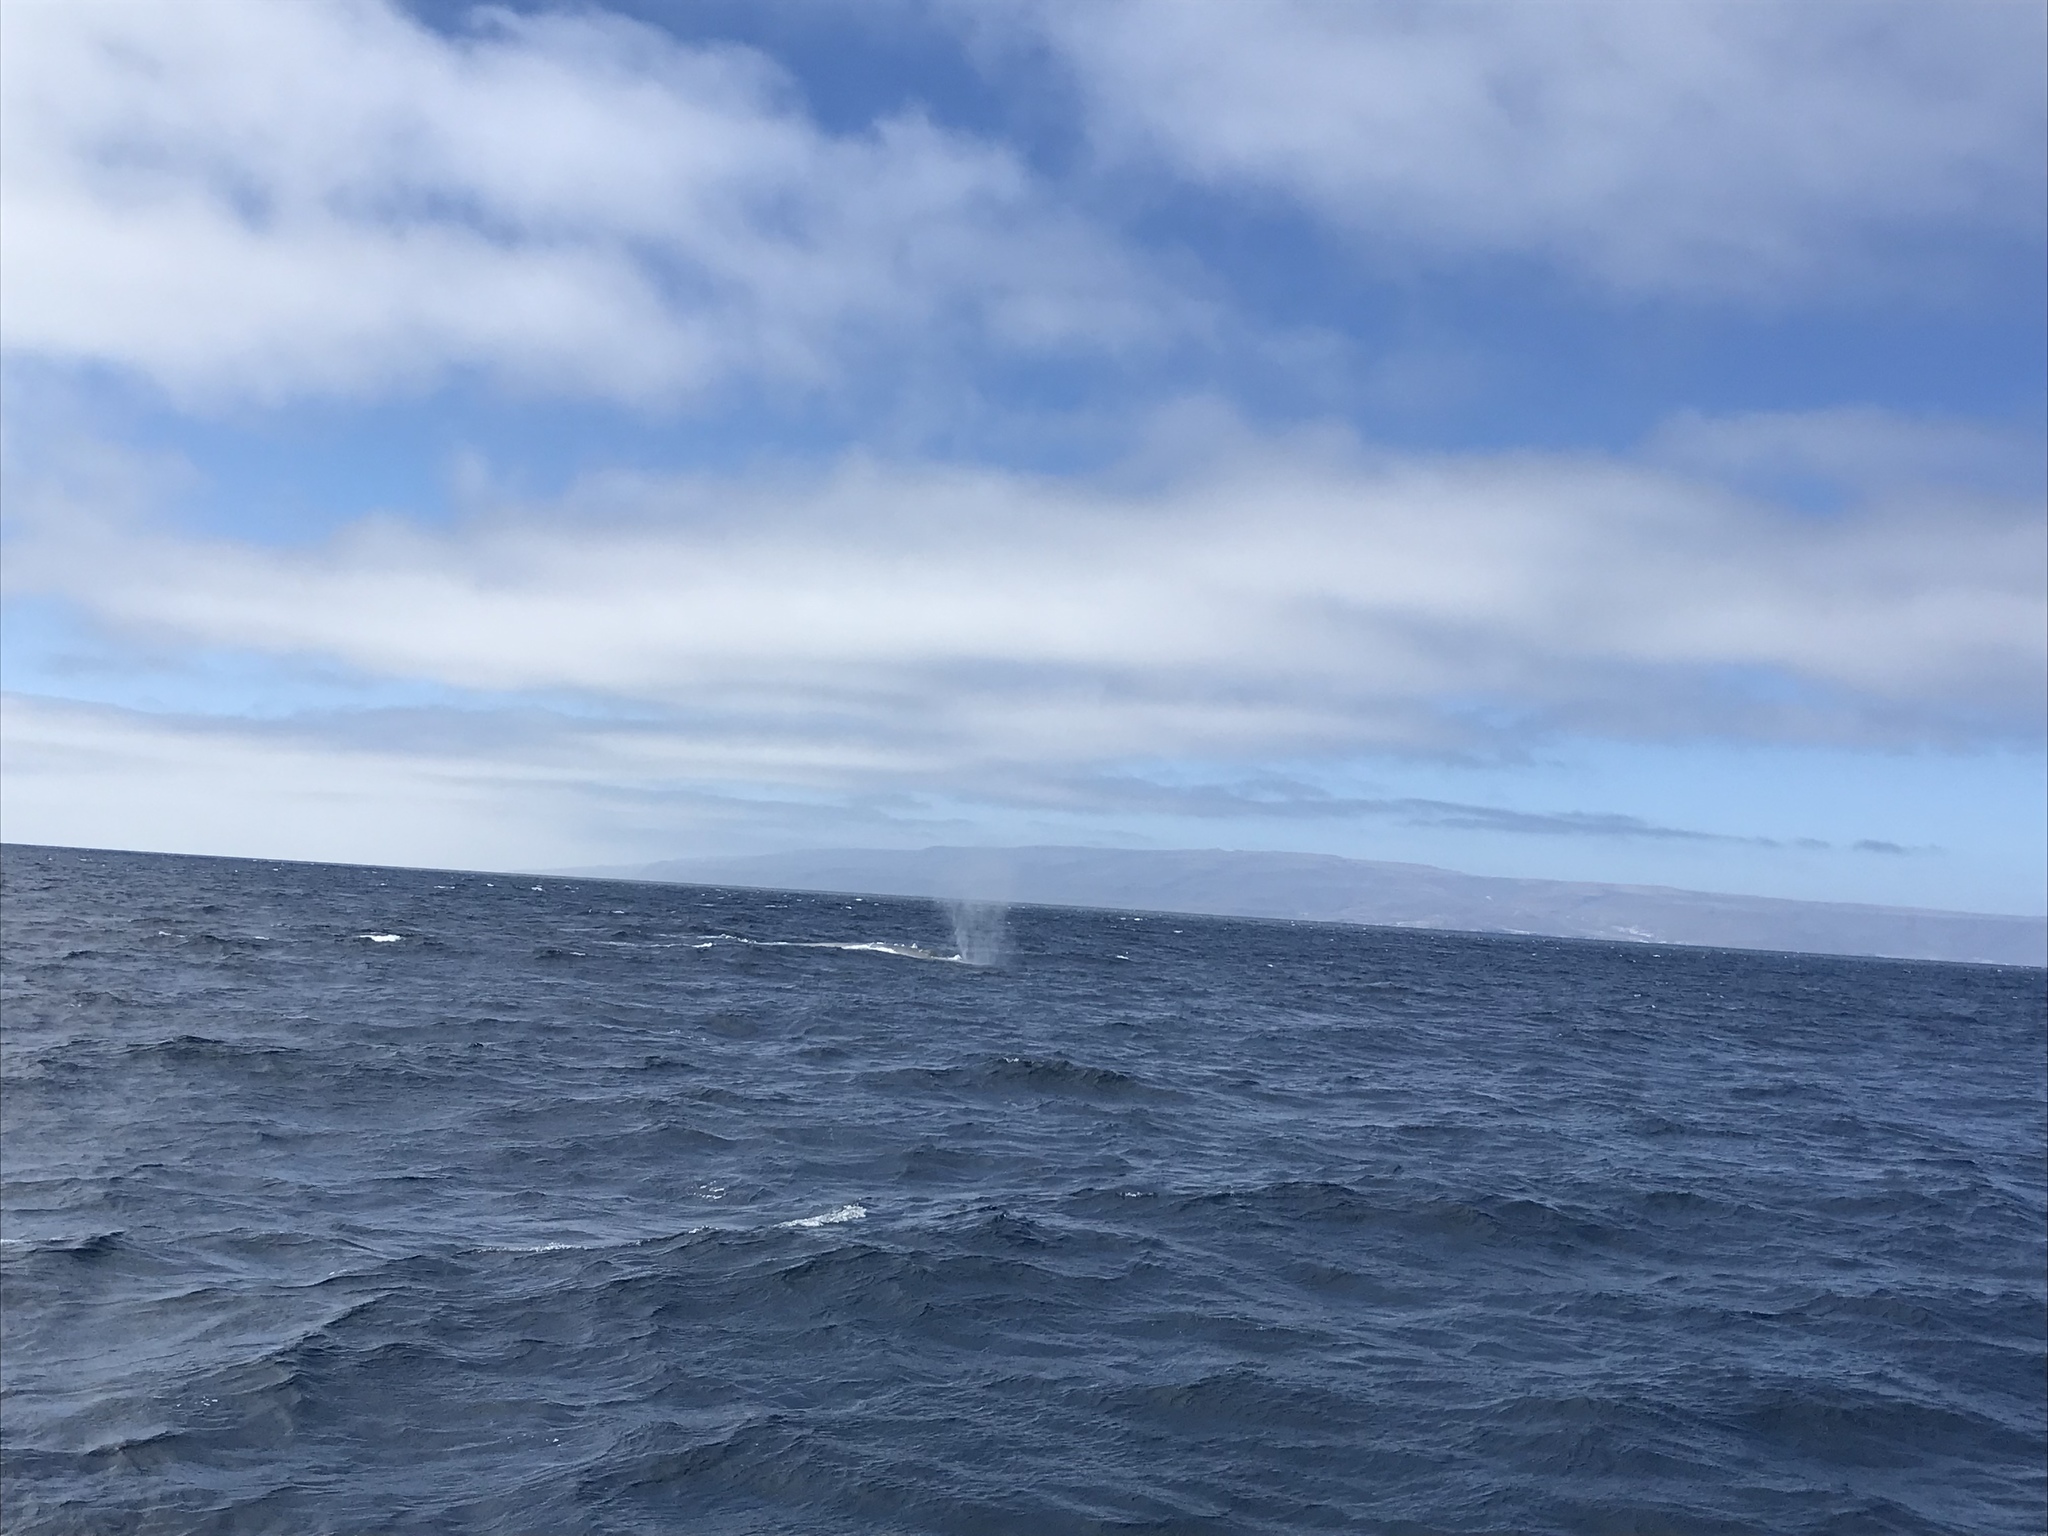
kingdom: Animalia
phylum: Chordata
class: Mammalia
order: Cetacea
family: Balaenopteridae
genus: Balaenoptera
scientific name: Balaenoptera musculus
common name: Blue whale
